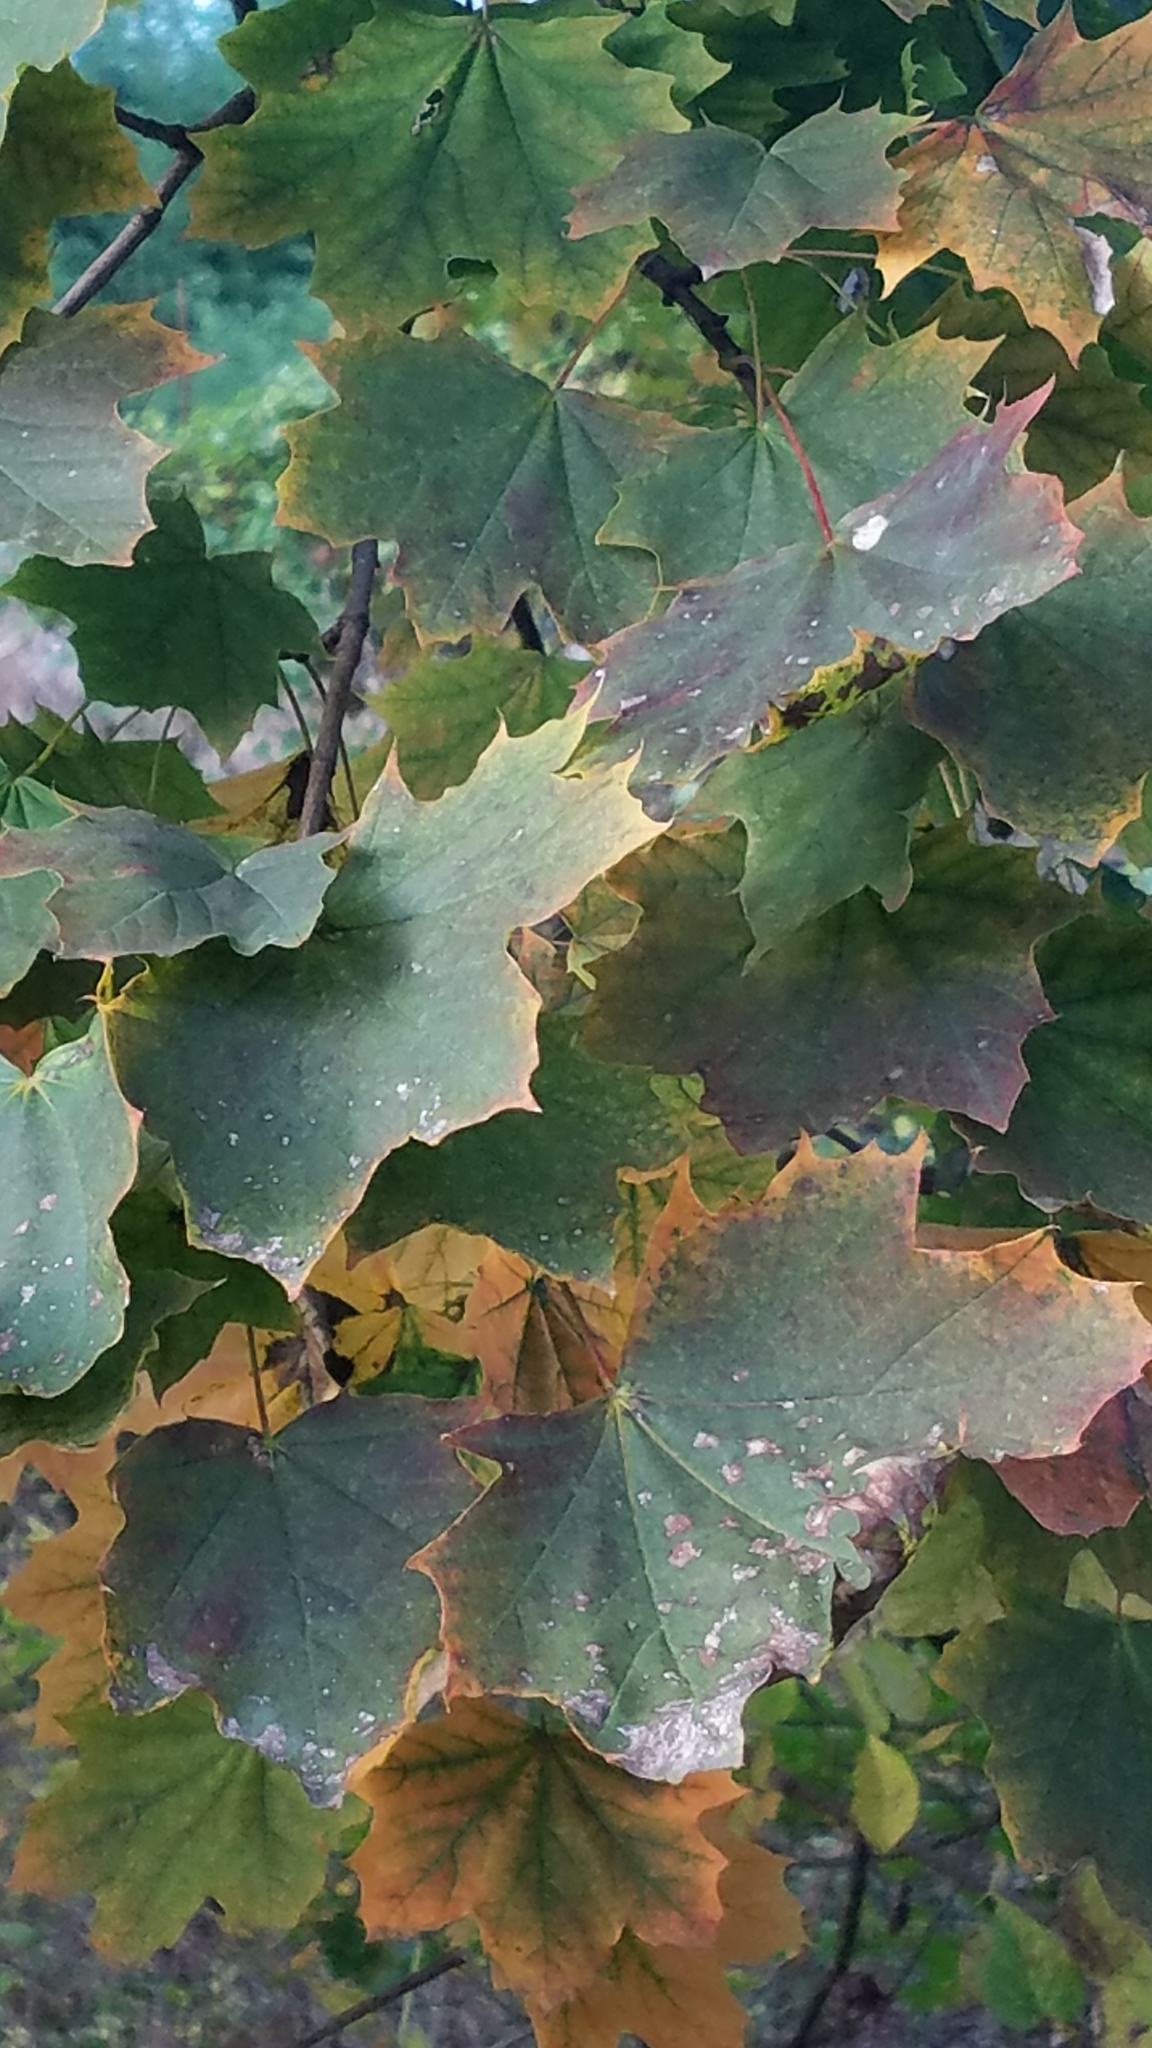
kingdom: Plantae
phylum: Tracheophyta
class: Magnoliopsida
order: Sapindales
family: Sapindaceae
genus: Acer
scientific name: Acer platanoides
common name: Norway maple
